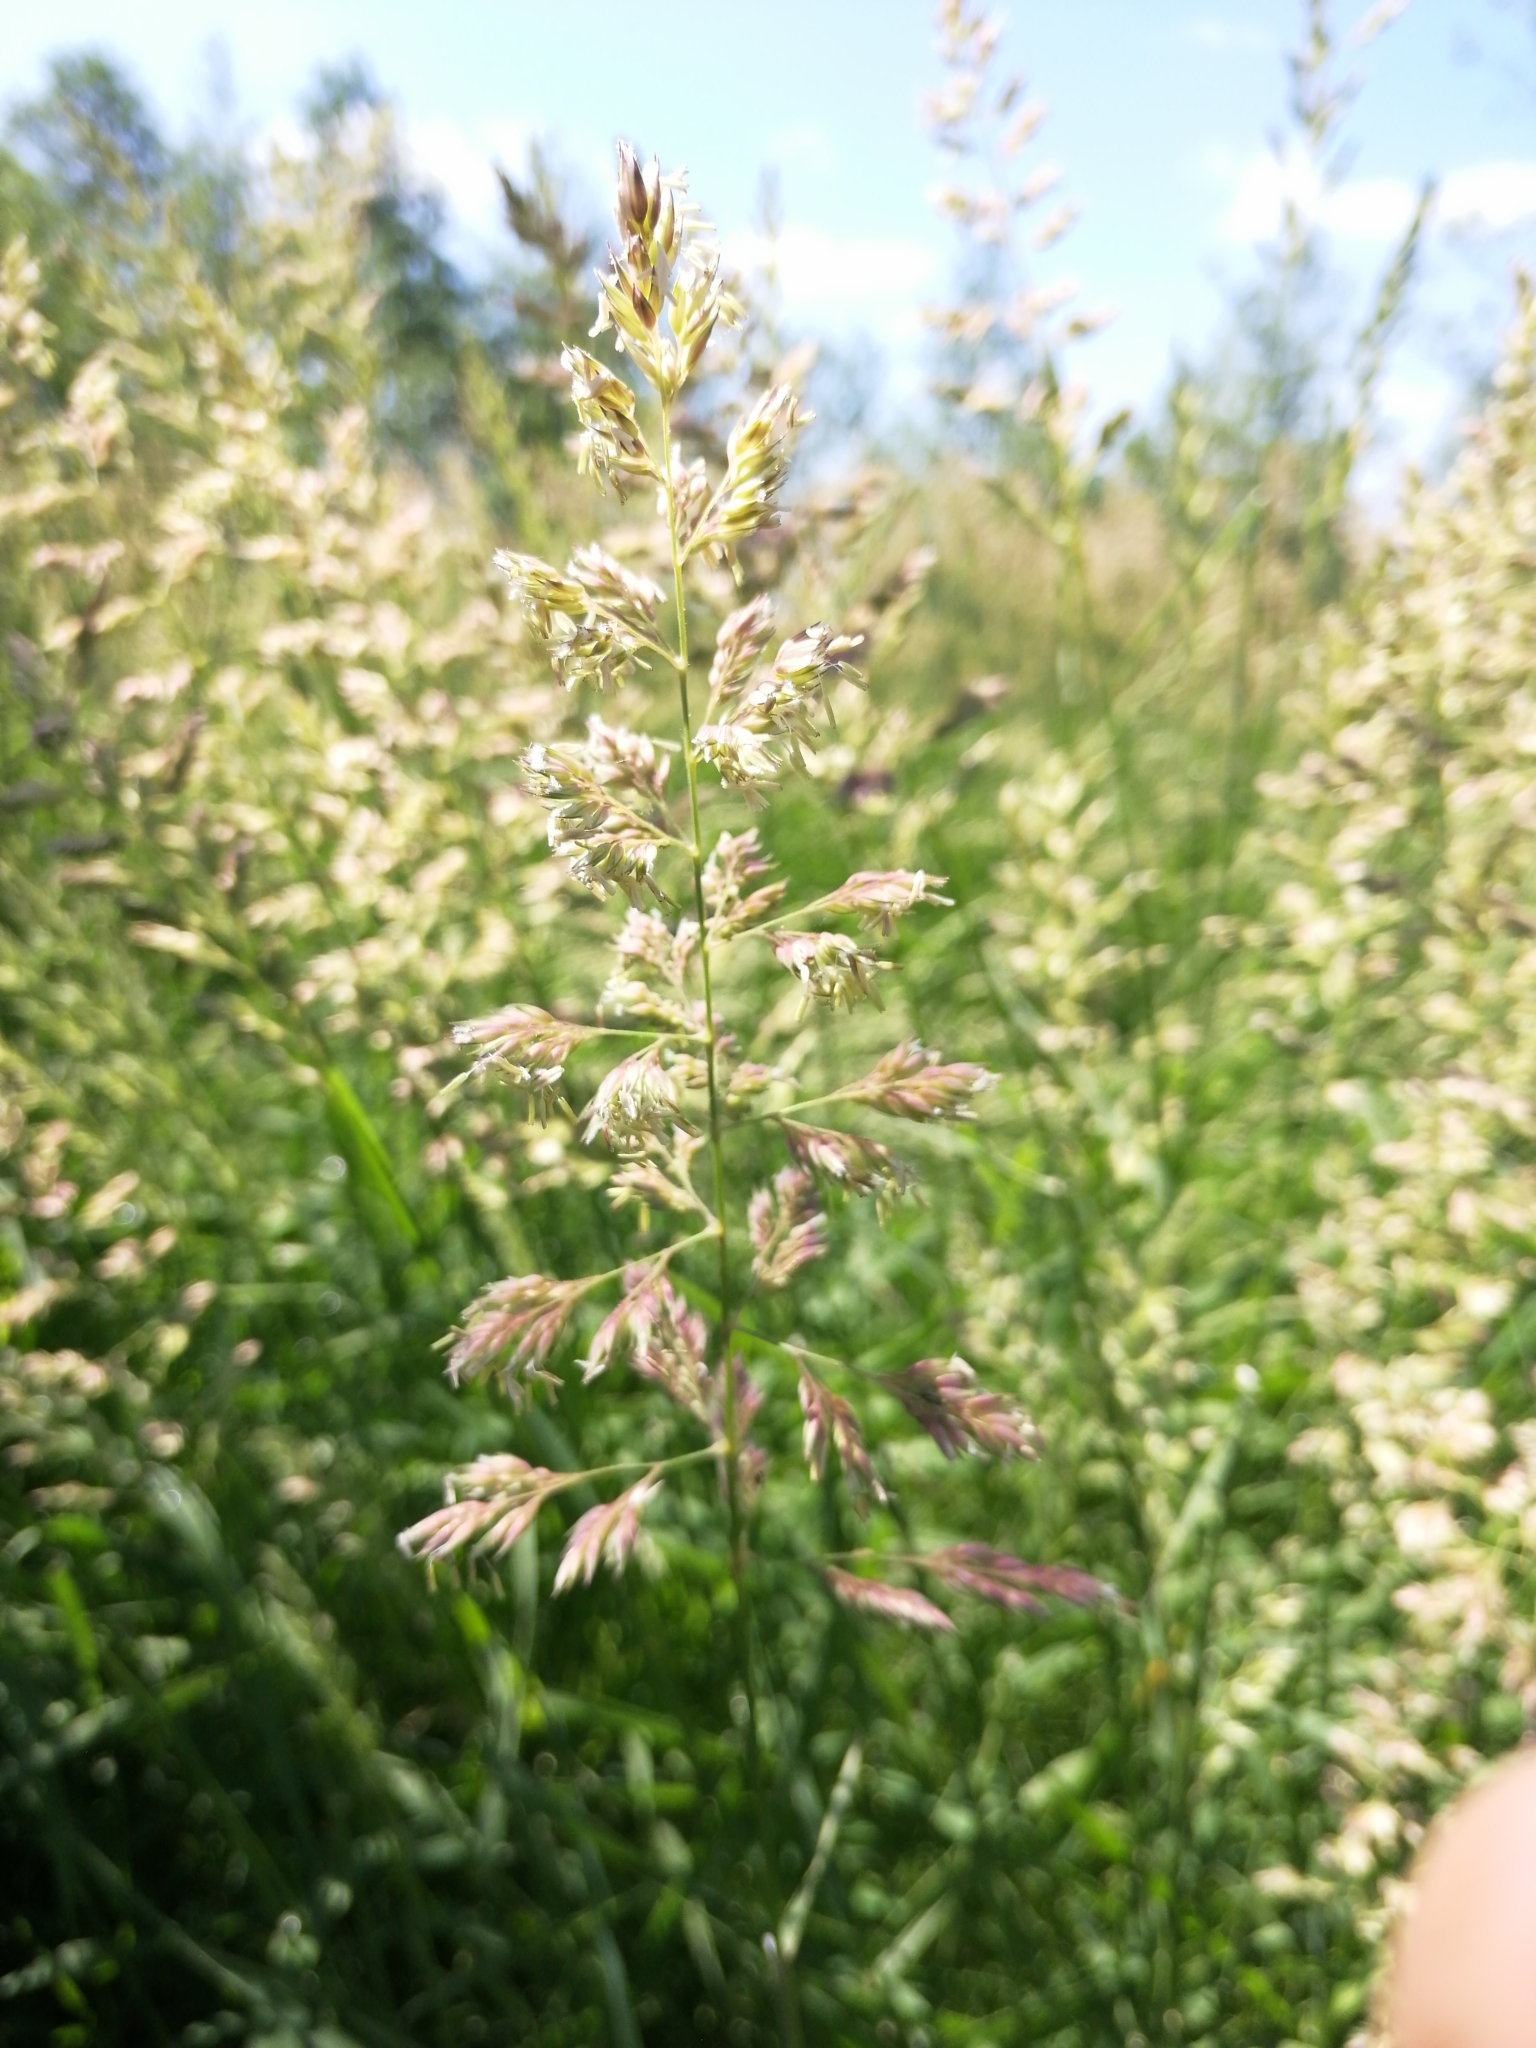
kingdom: Plantae
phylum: Tracheophyta
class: Liliopsida
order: Poales
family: Poaceae
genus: Phalaris
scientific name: Phalaris arundinacea
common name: Reed canary-grass
